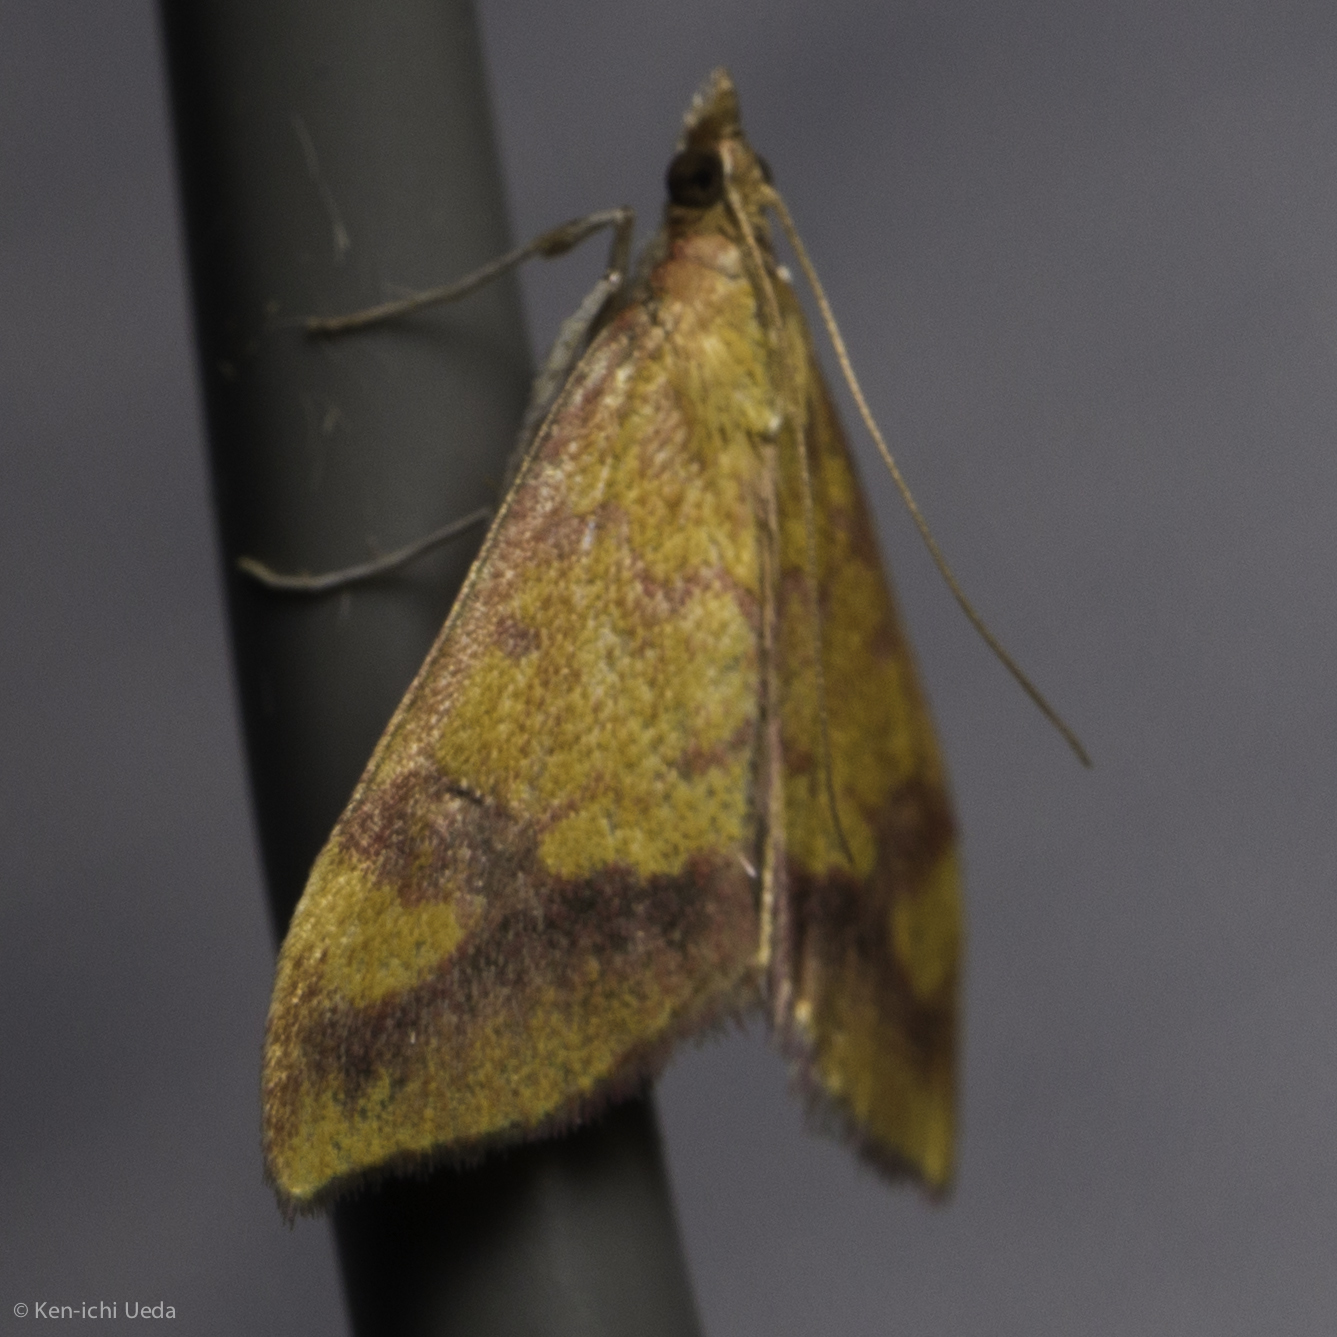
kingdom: Animalia
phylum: Arthropoda
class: Insecta
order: Lepidoptera
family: Crambidae
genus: Pyrausta
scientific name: Pyrausta perrubralis
